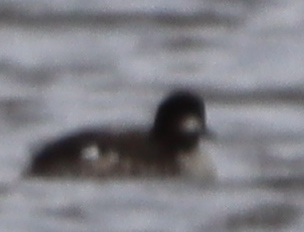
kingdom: Animalia
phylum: Chordata
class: Aves
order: Anseriformes
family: Anatidae
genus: Bucephala
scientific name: Bucephala albeola
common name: Bufflehead
